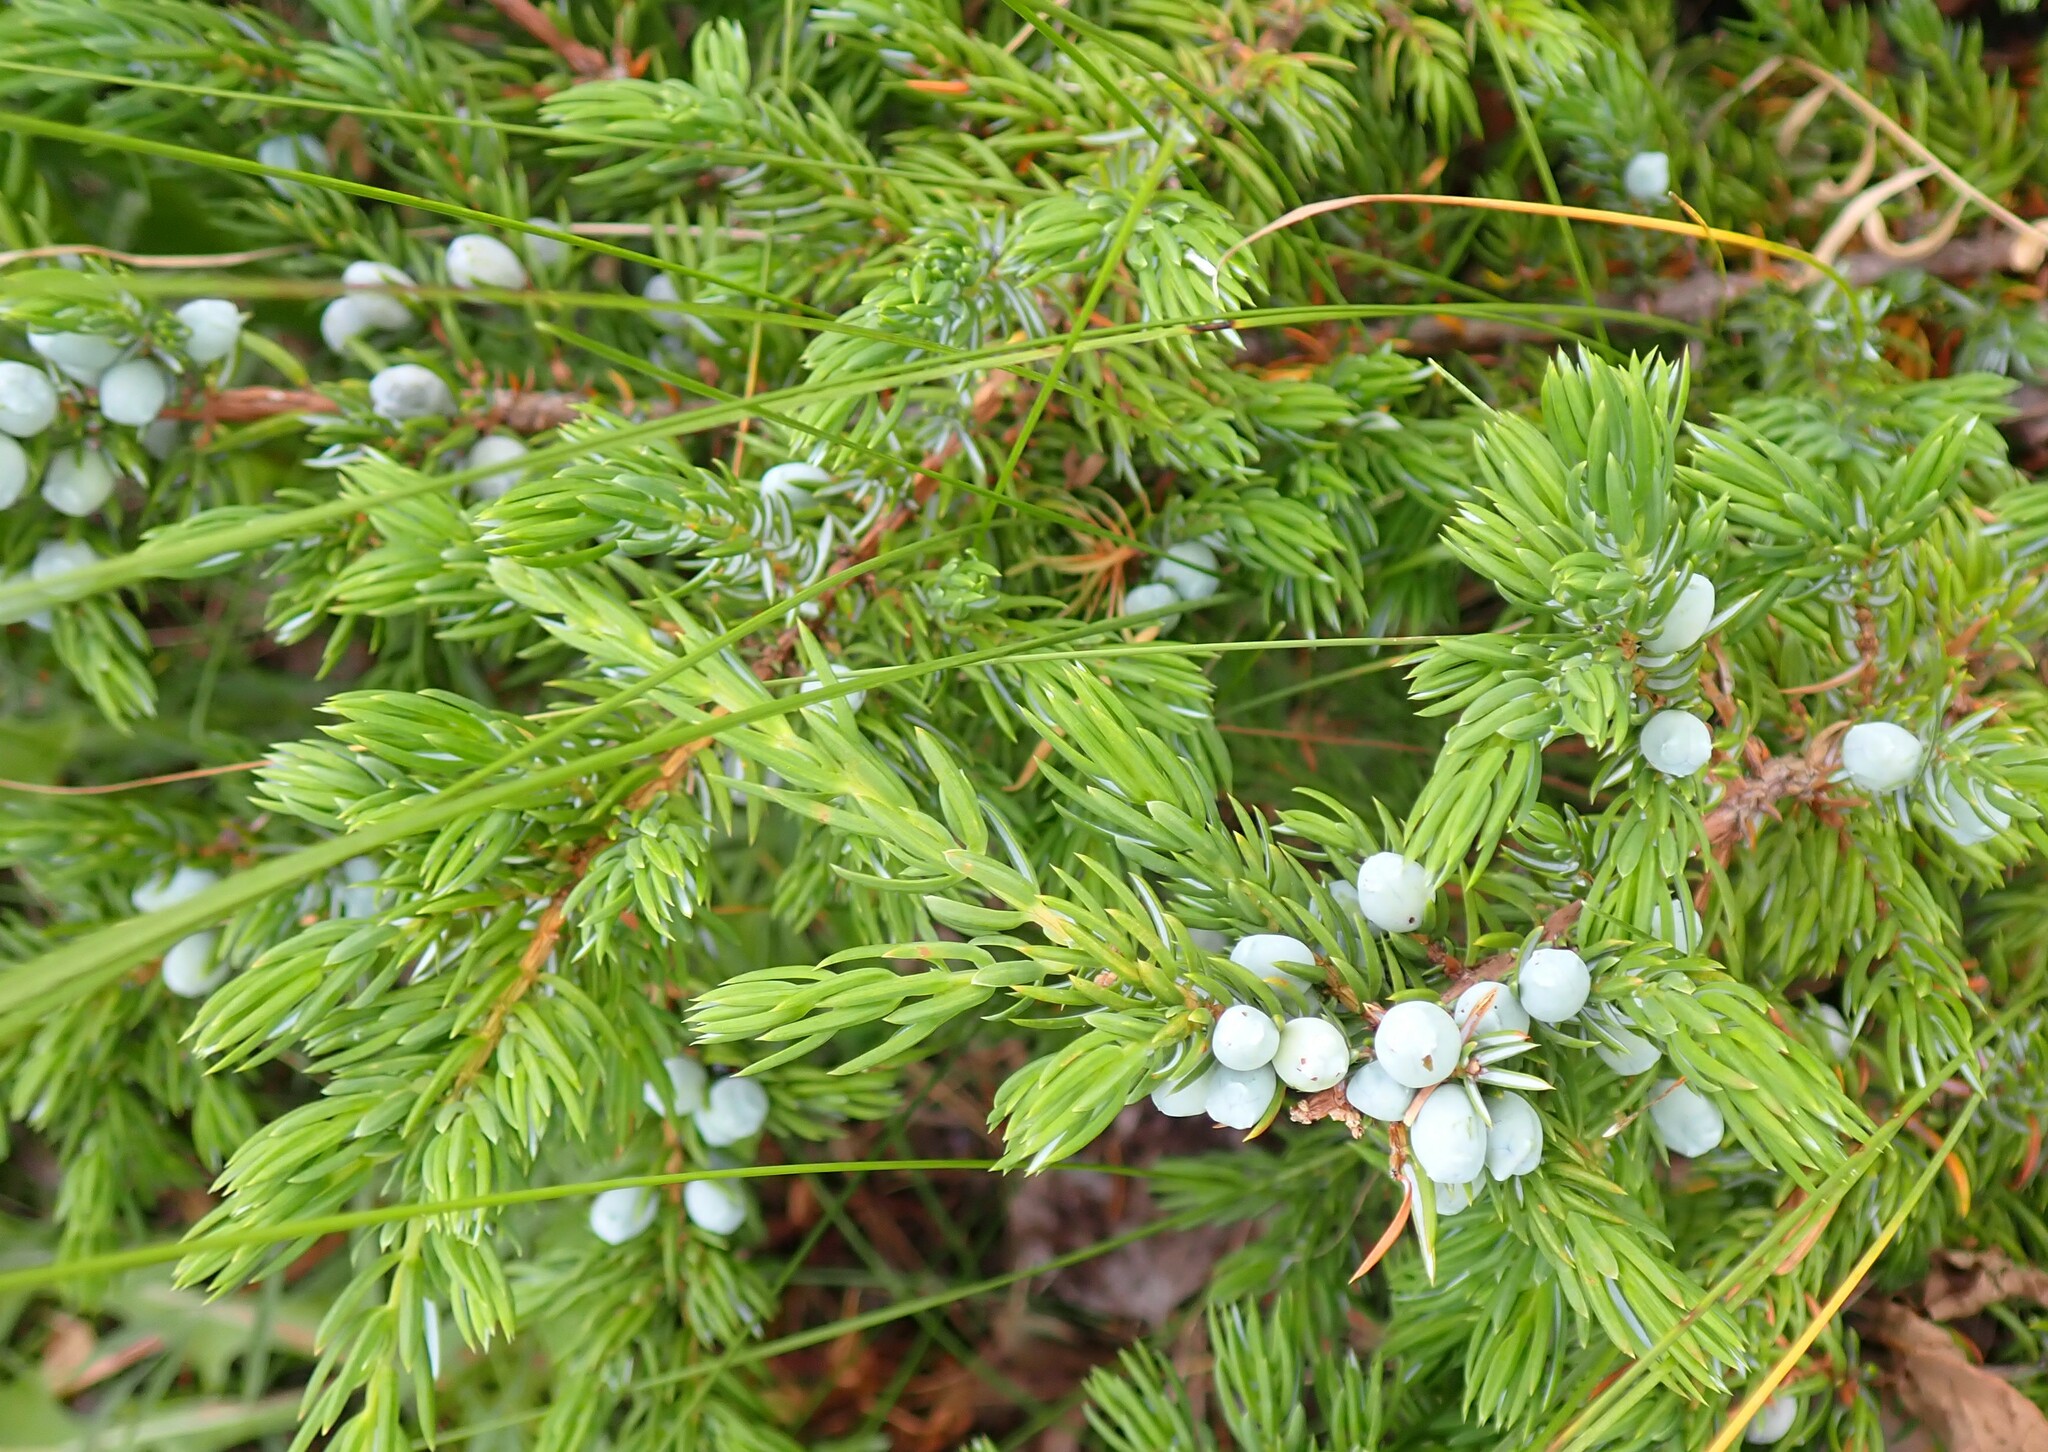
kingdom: Plantae
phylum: Tracheophyta
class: Pinopsida
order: Pinales
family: Cupressaceae
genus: Juniperus
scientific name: Juniperus communis
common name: Common juniper
